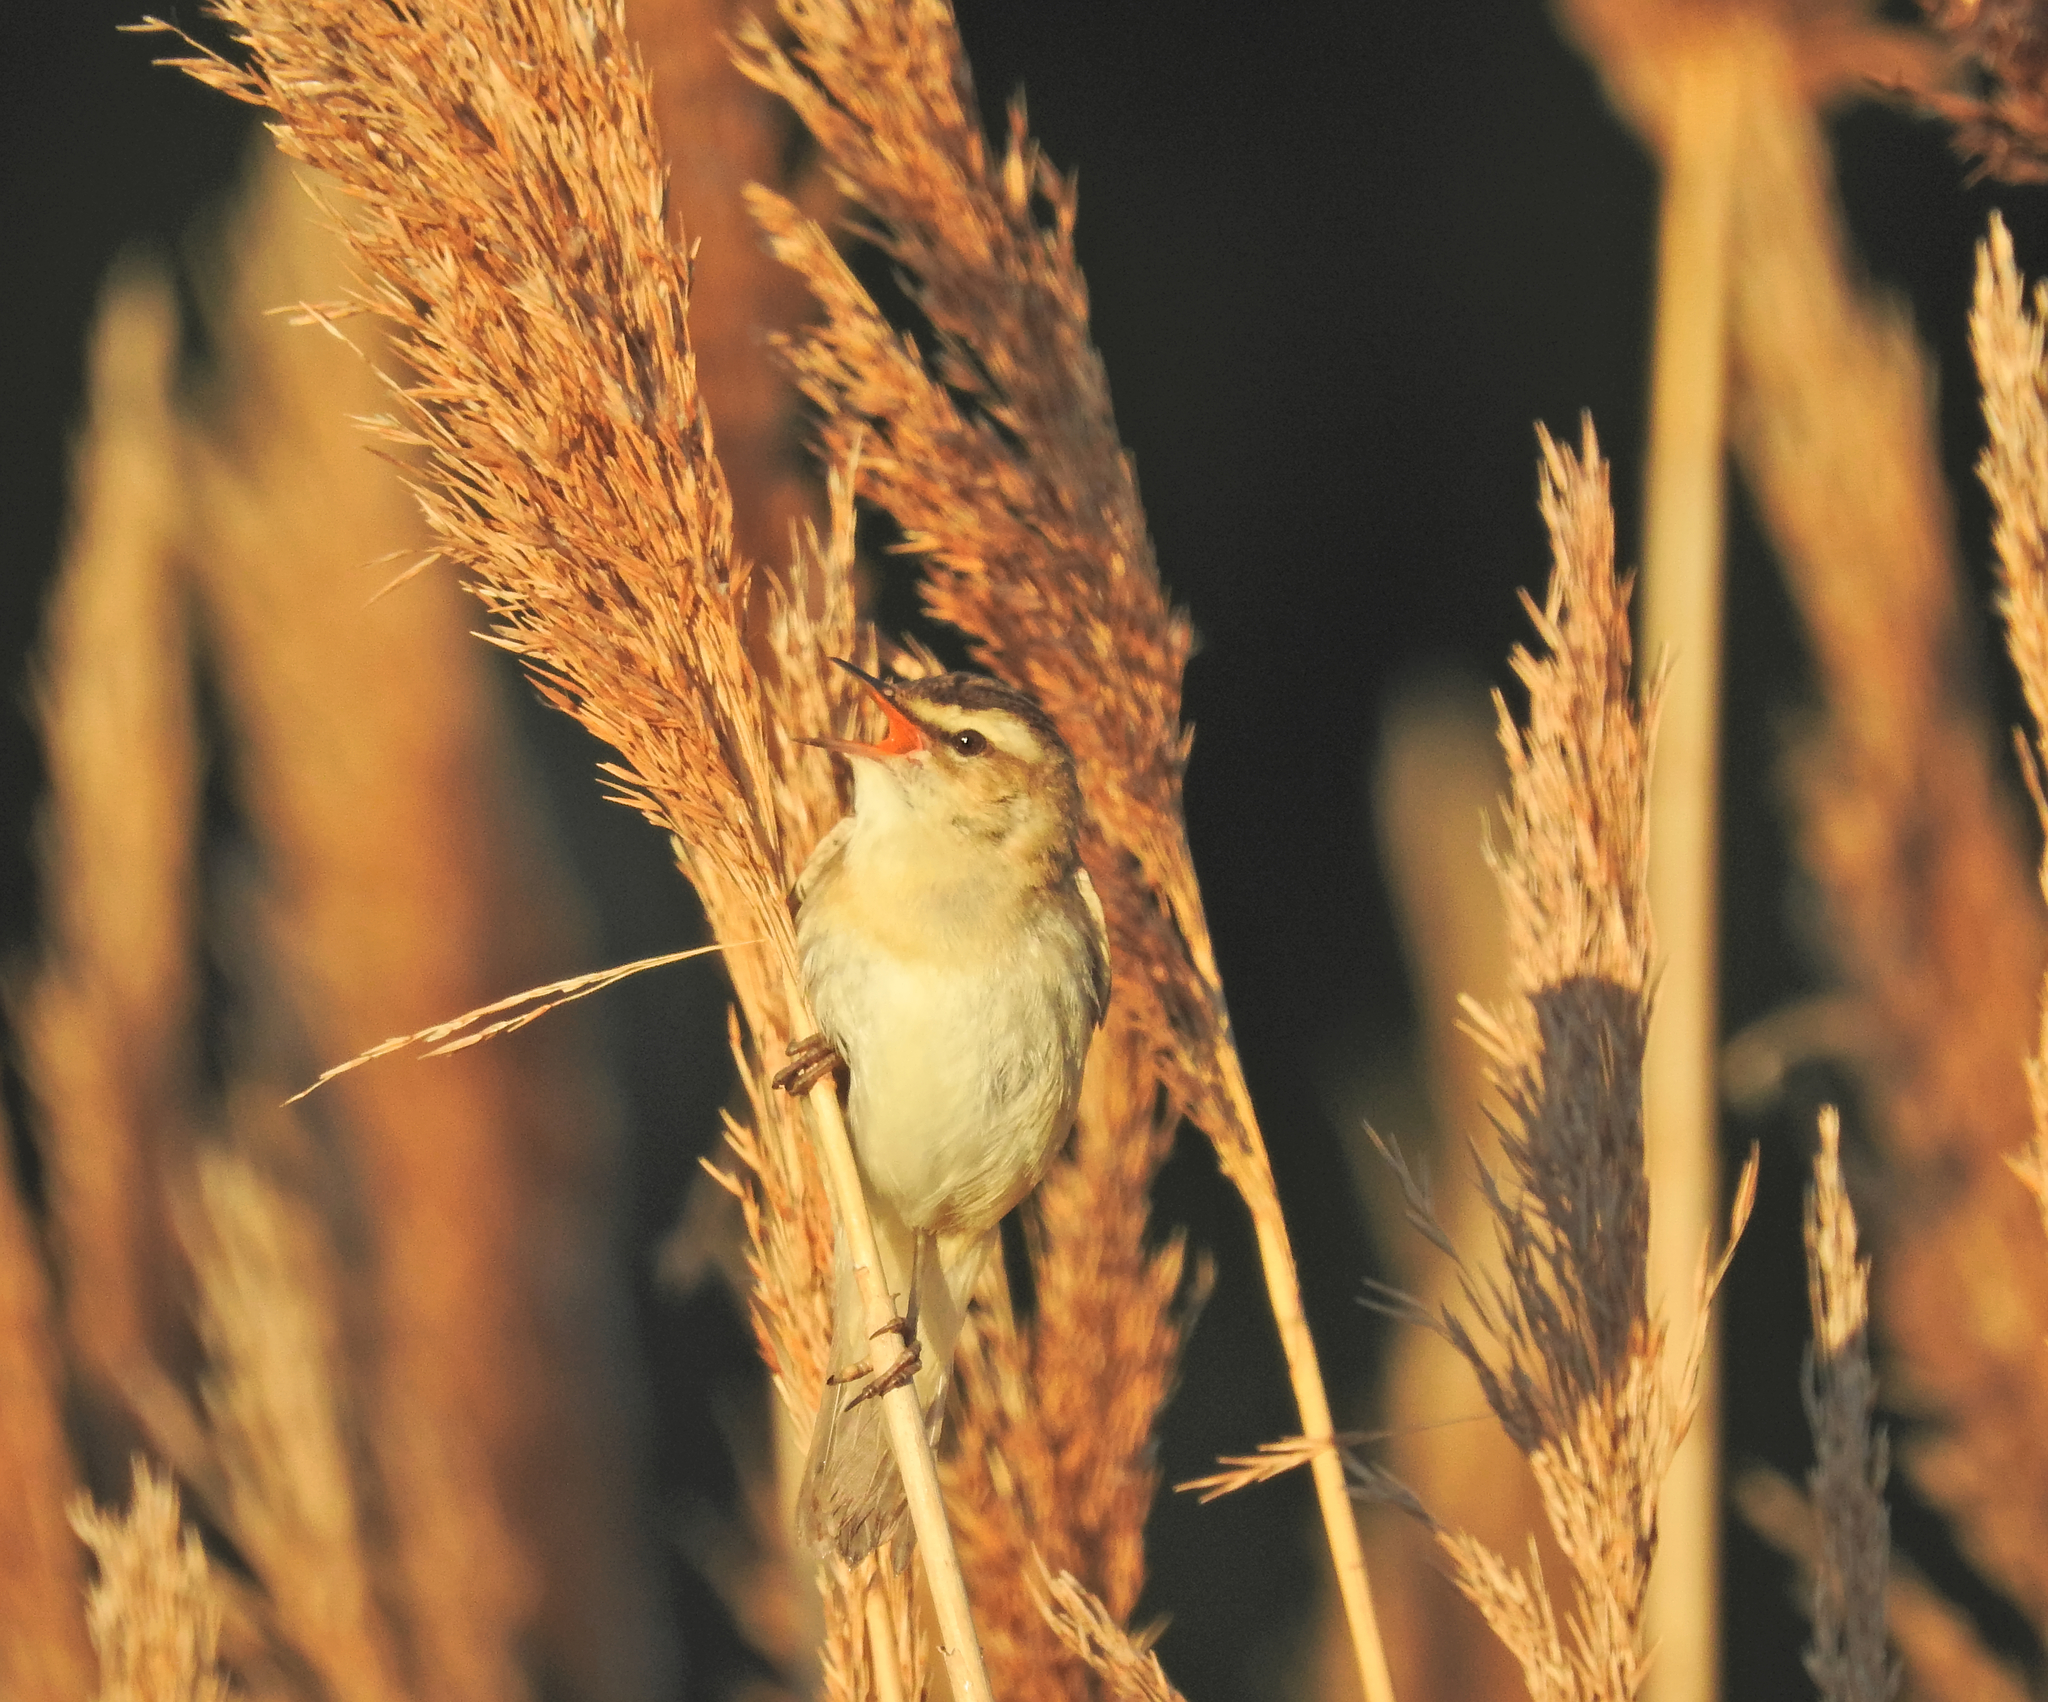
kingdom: Animalia
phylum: Chordata
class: Aves
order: Passeriformes
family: Acrocephalidae
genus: Acrocephalus
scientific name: Acrocephalus schoenobaenus
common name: Sedge warbler
